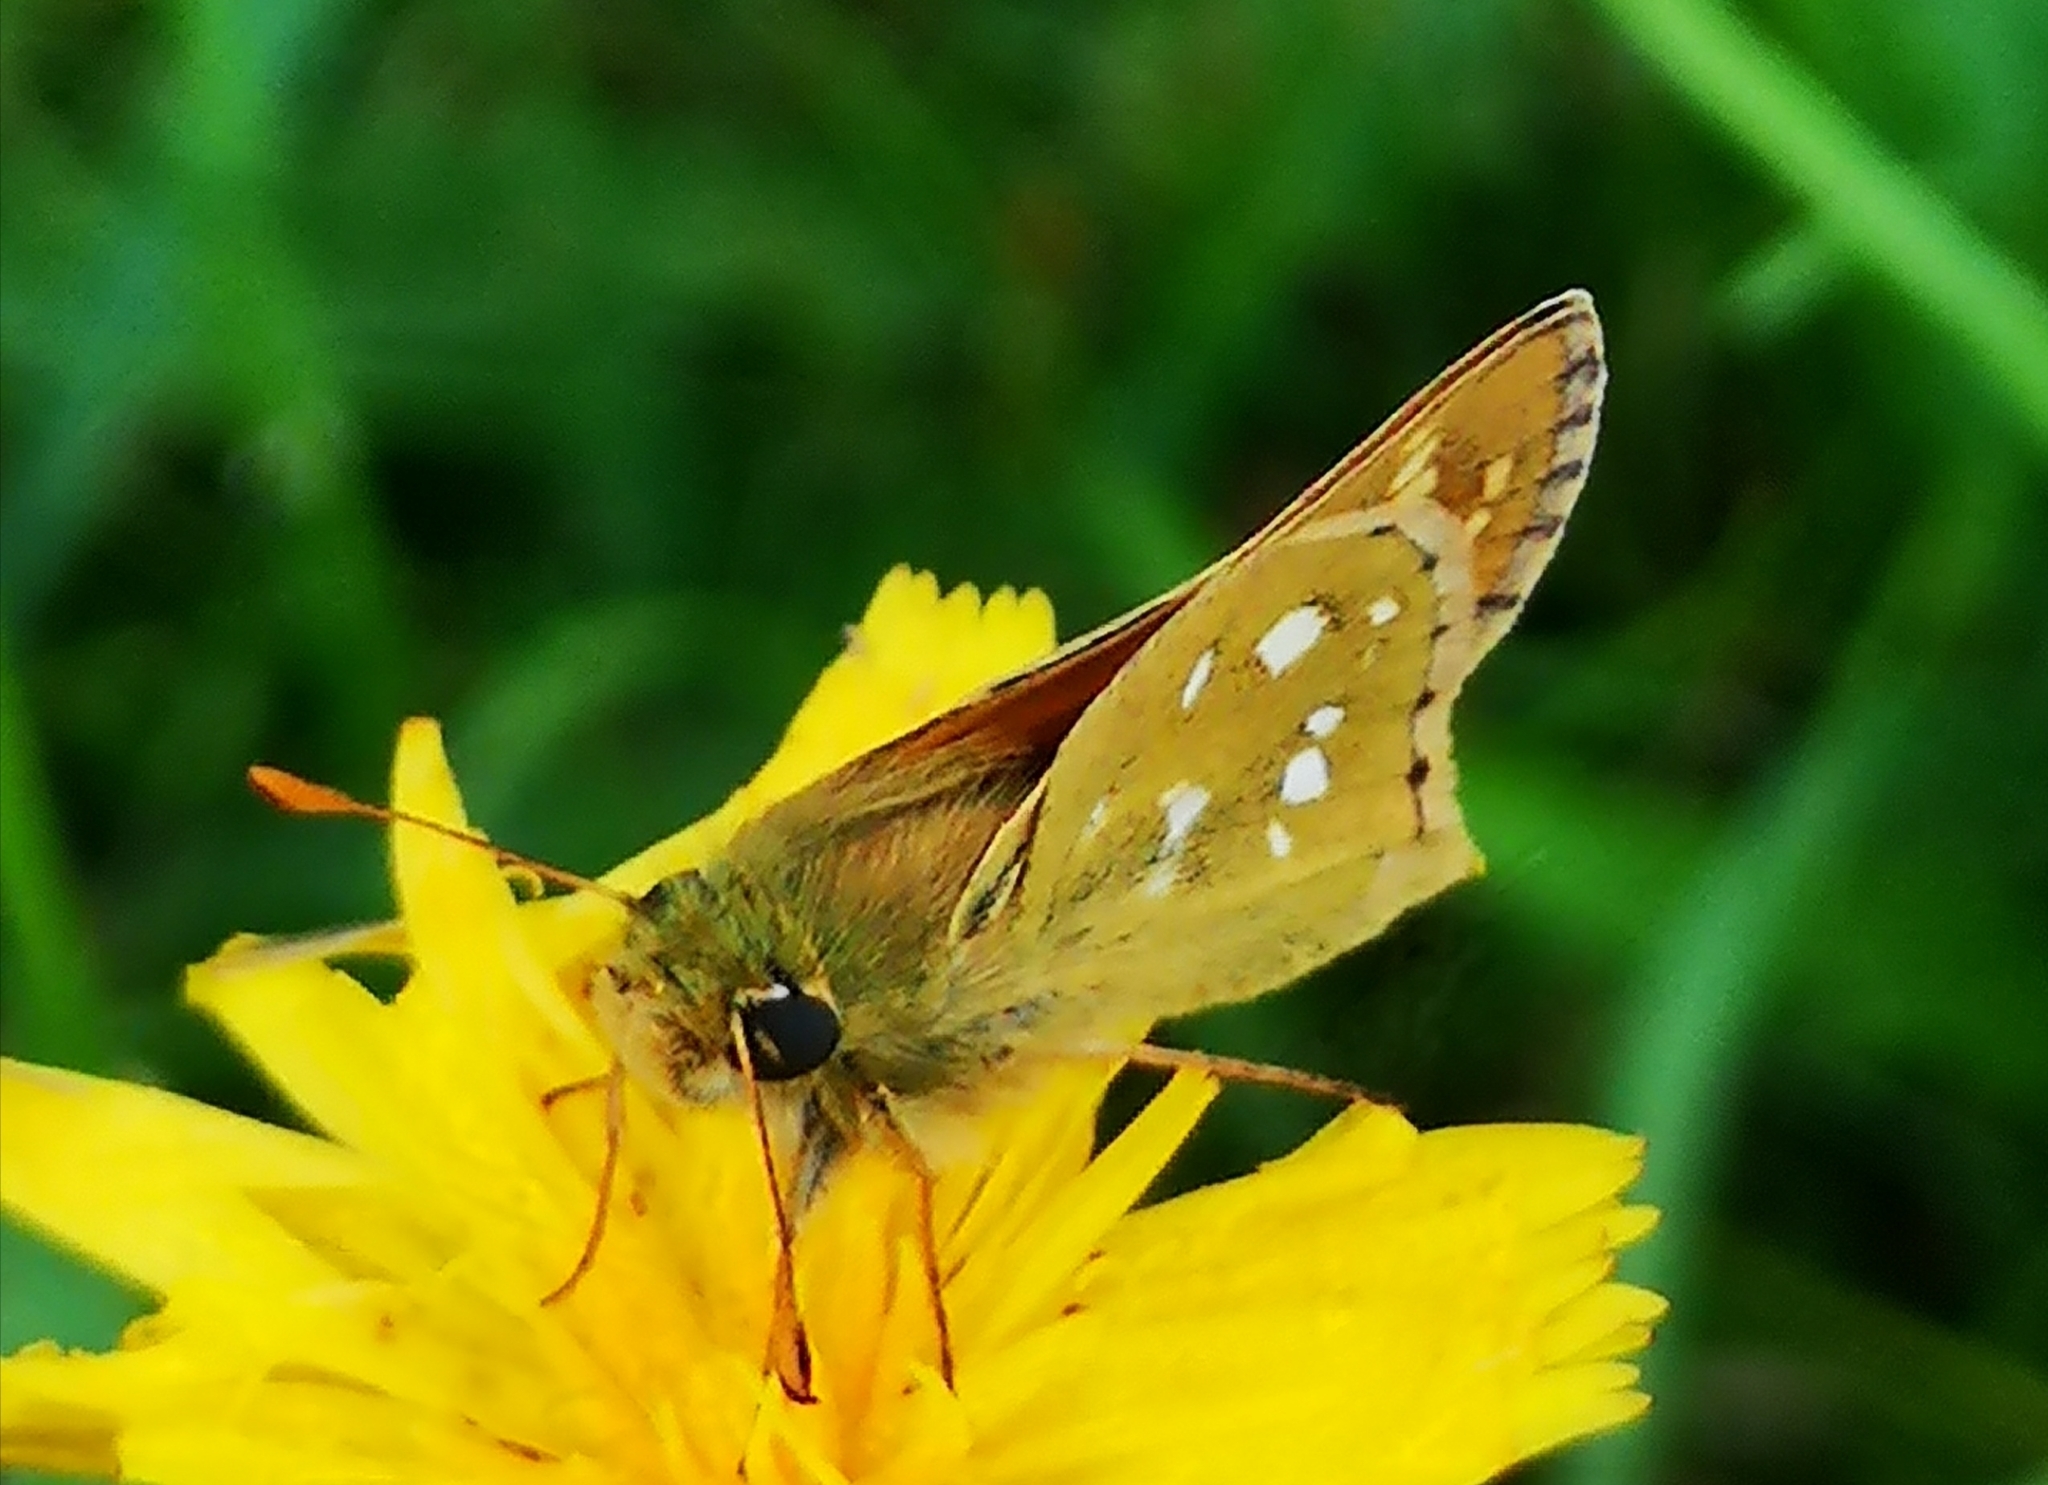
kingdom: Animalia
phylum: Arthropoda
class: Insecta
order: Lepidoptera
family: Hesperiidae
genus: Hesperia
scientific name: Hesperia comma
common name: Common branded skipper
